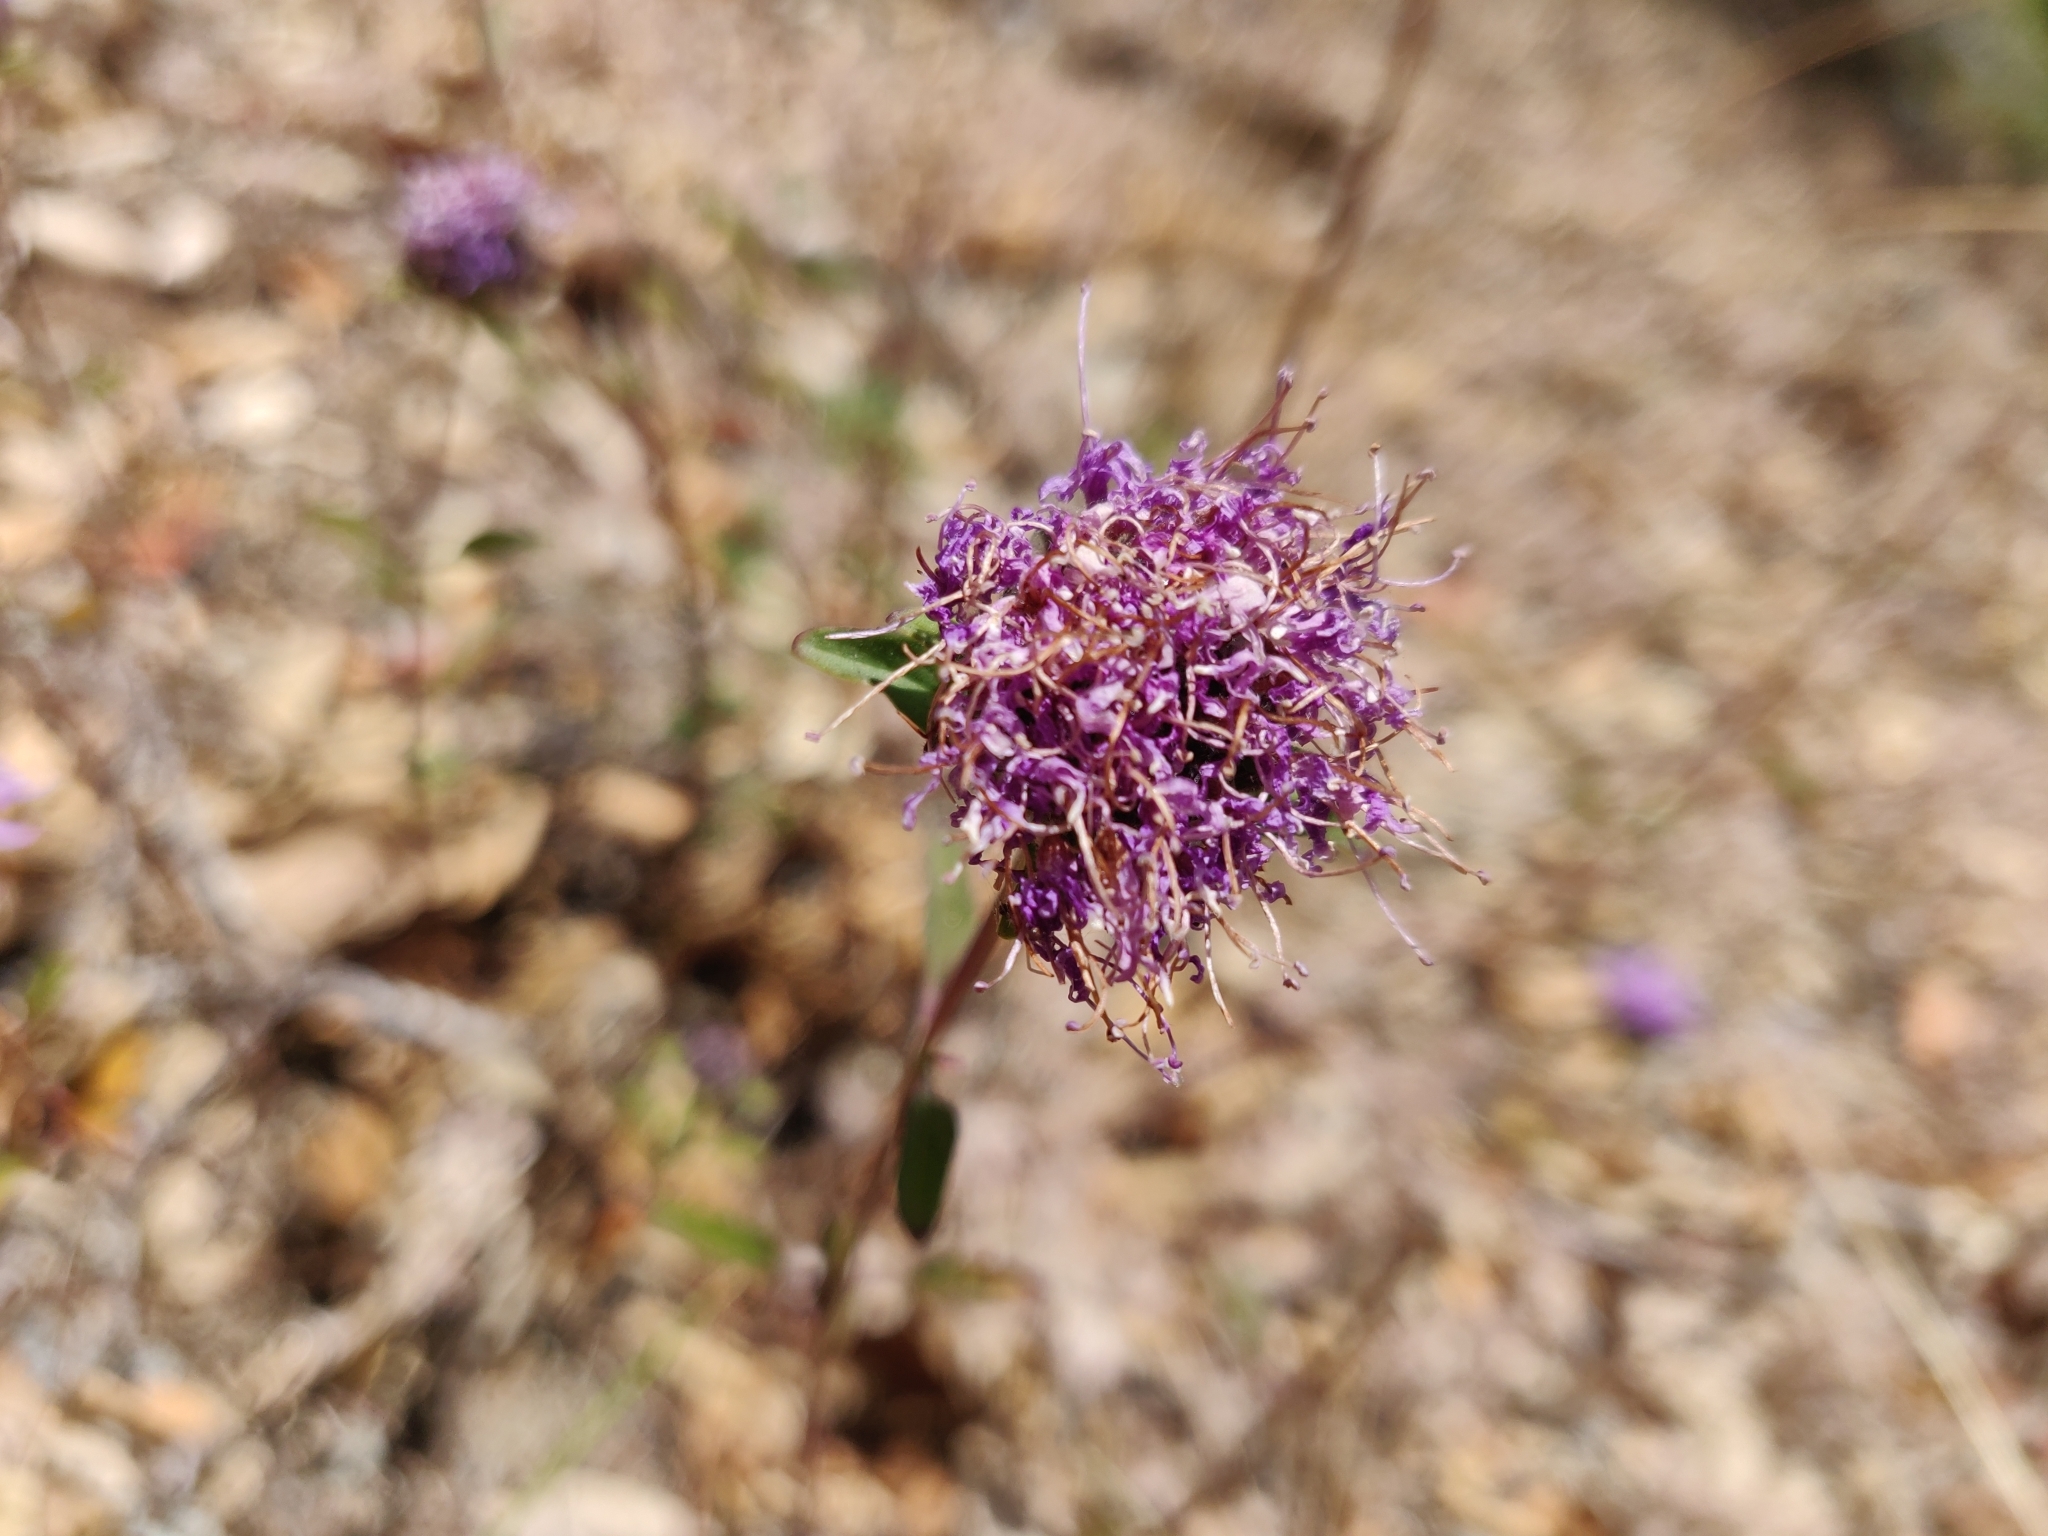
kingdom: Plantae
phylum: Tracheophyta
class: Magnoliopsida
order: Lamiales
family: Lamiaceae
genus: Monardella
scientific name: Monardella odoratissima
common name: Pacific monardella
